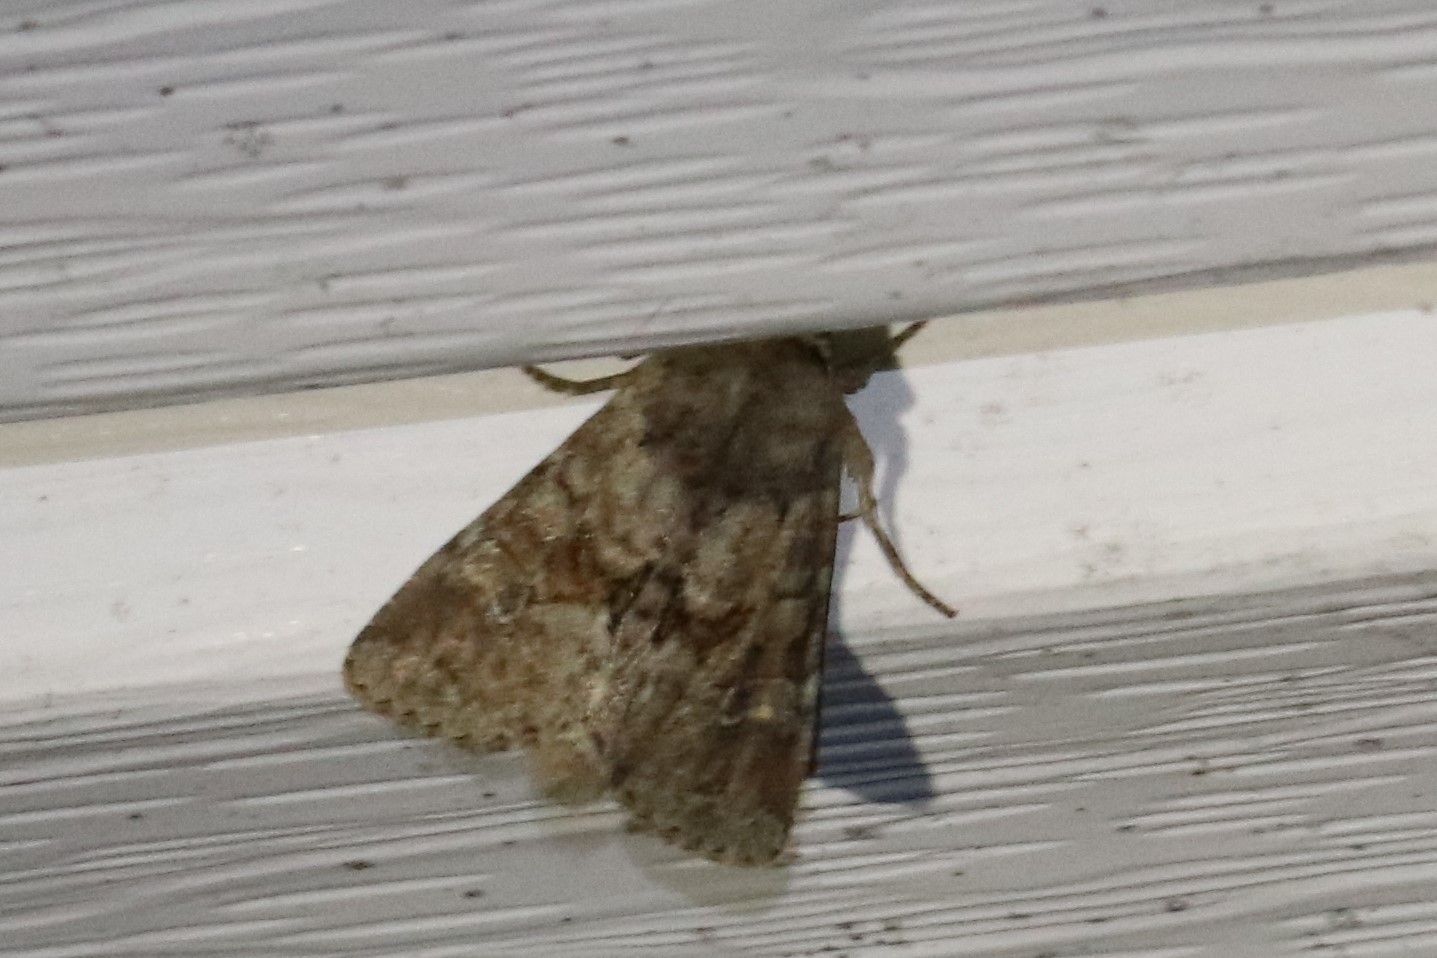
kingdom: Animalia
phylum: Arthropoda
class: Insecta
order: Lepidoptera
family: Noctuidae
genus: Apamea
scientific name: Apamea sordens
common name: Rustic shoulder-knot
